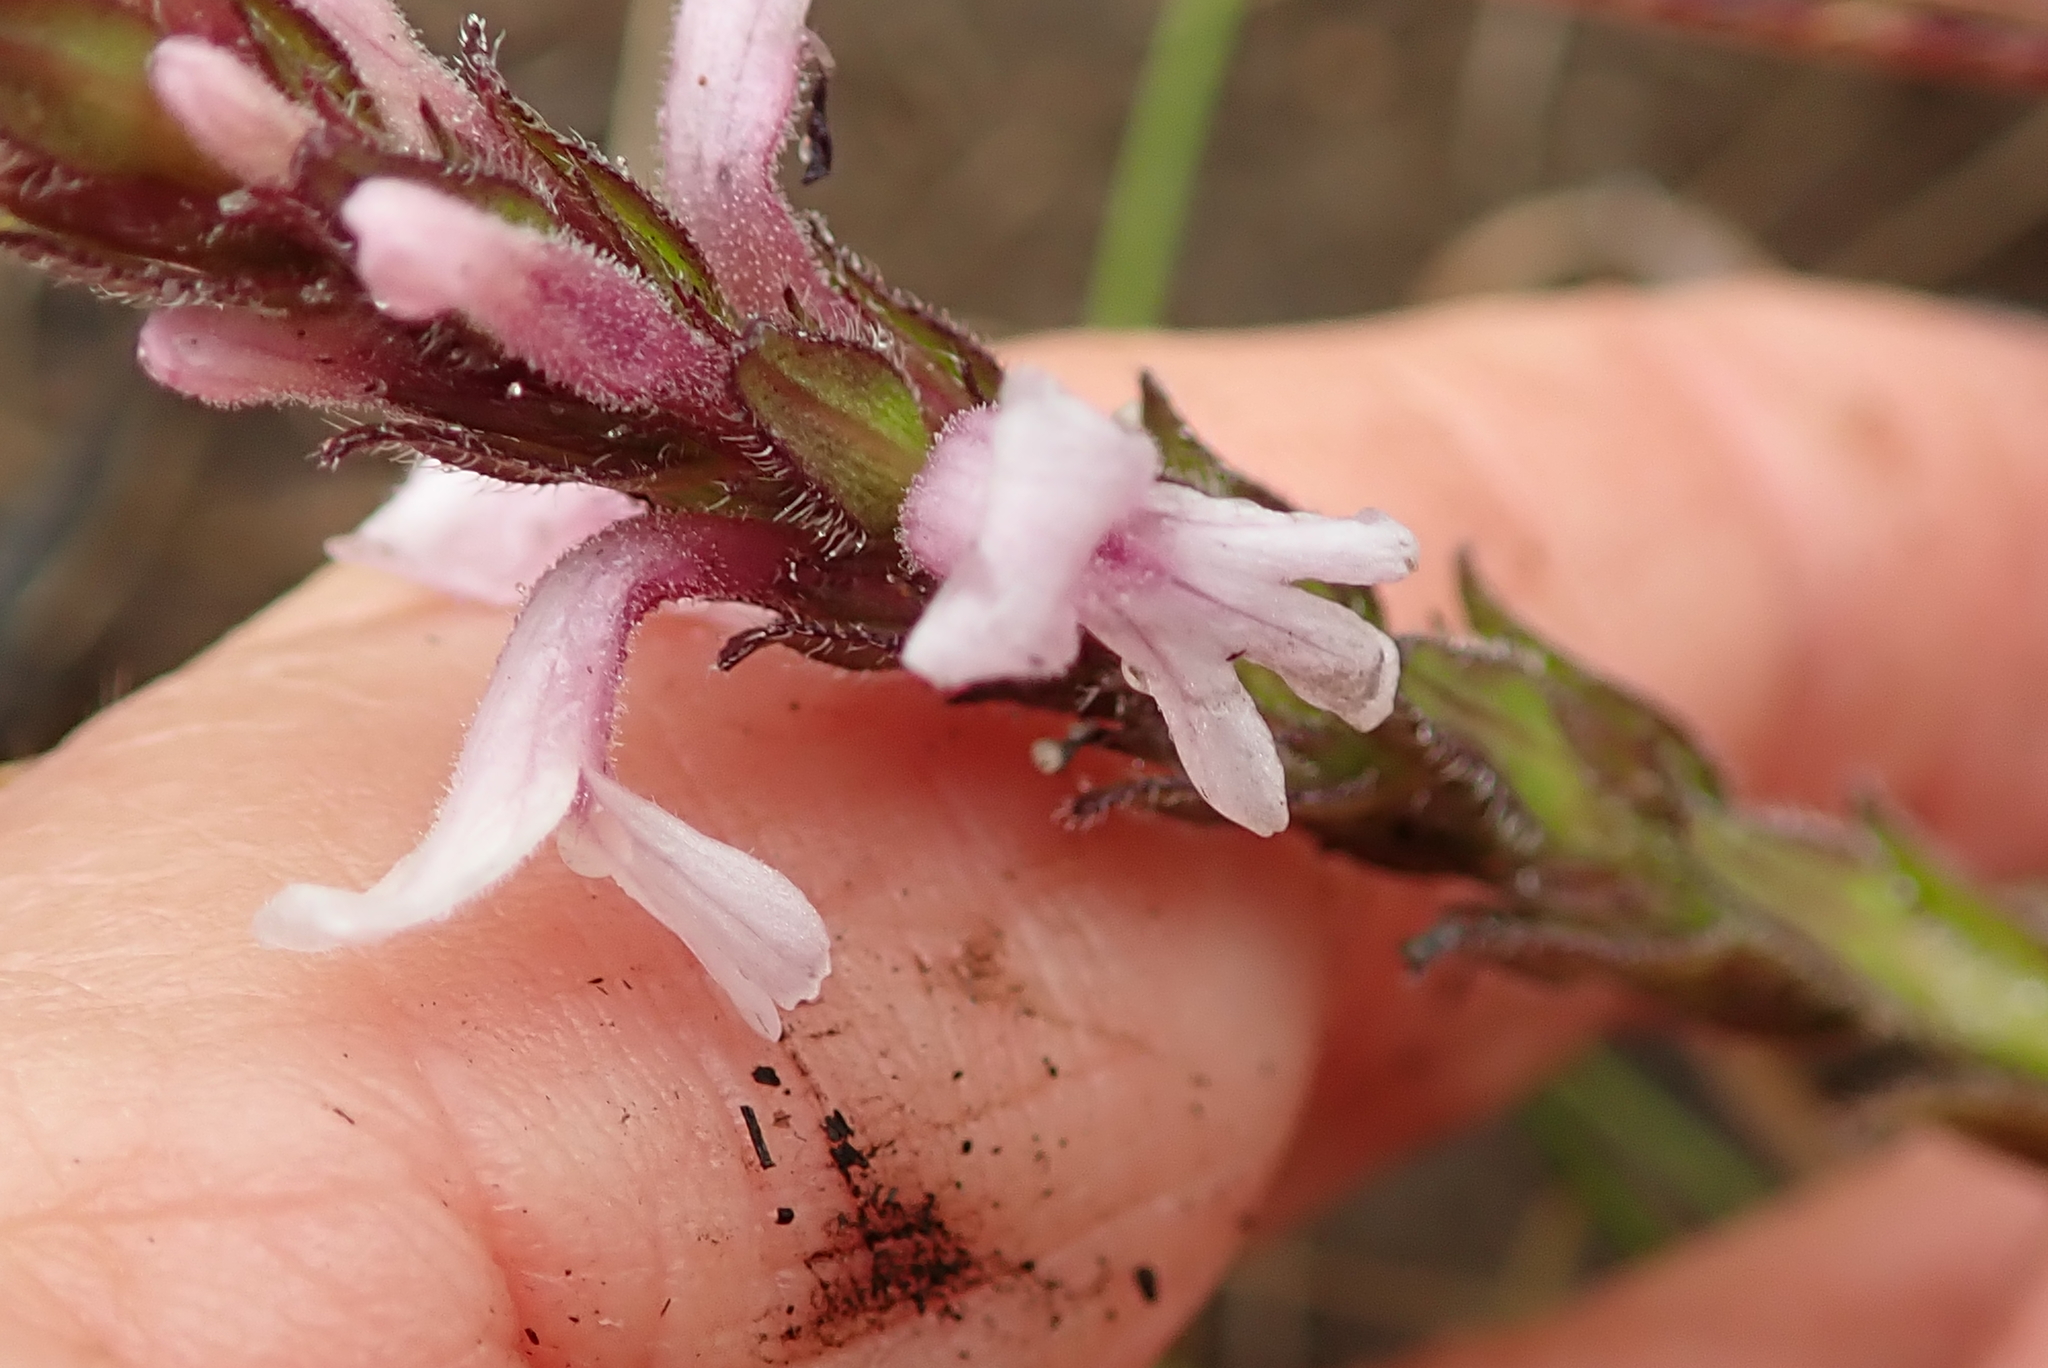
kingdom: Plantae
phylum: Tracheophyta
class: Magnoliopsida
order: Lamiales
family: Orobanchaceae
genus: Striga
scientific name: Striga bilabiata
